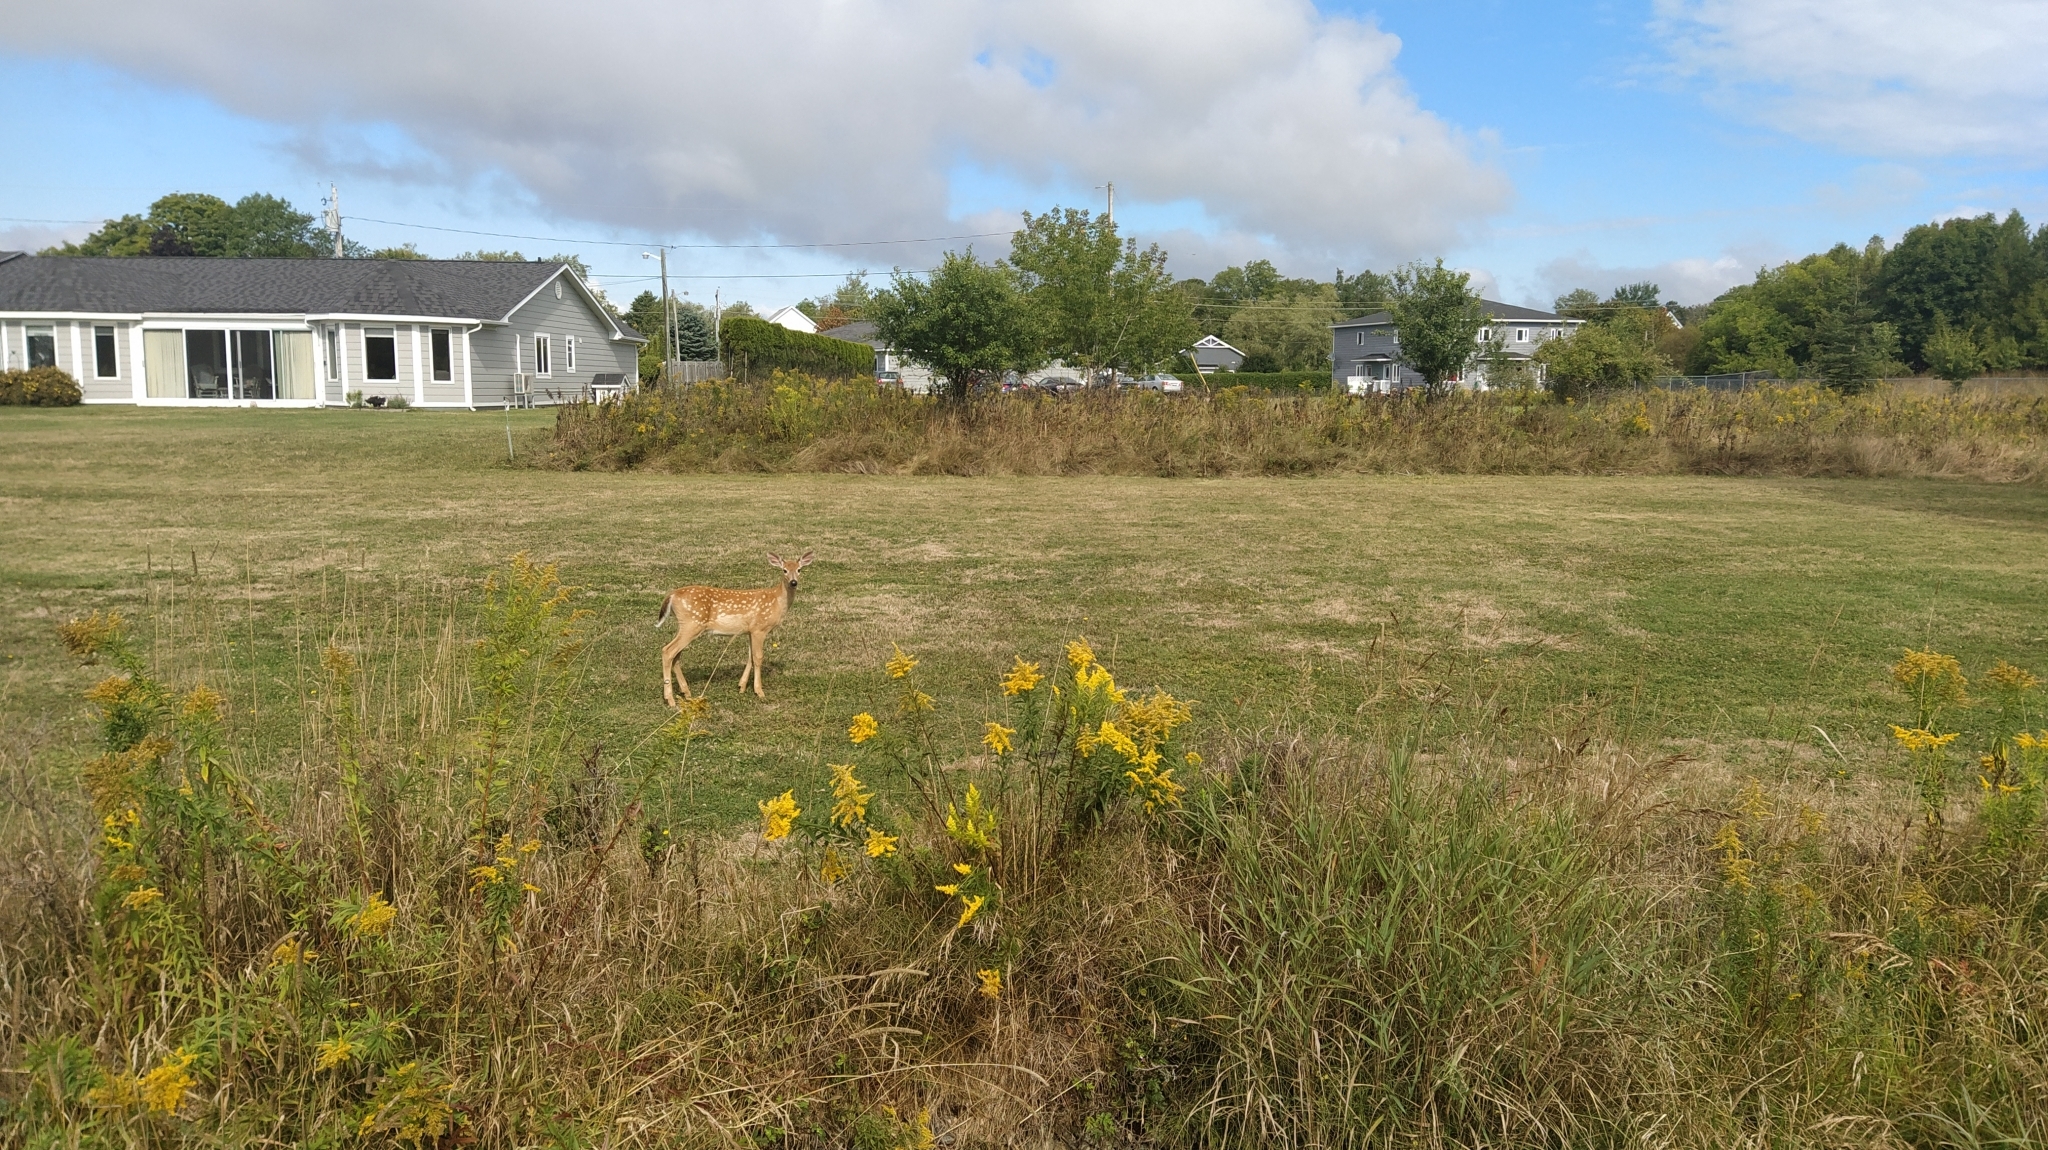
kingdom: Animalia
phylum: Chordata
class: Mammalia
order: Artiodactyla
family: Cervidae
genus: Odocoileus
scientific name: Odocoileus virginianus
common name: White-tailed deer
